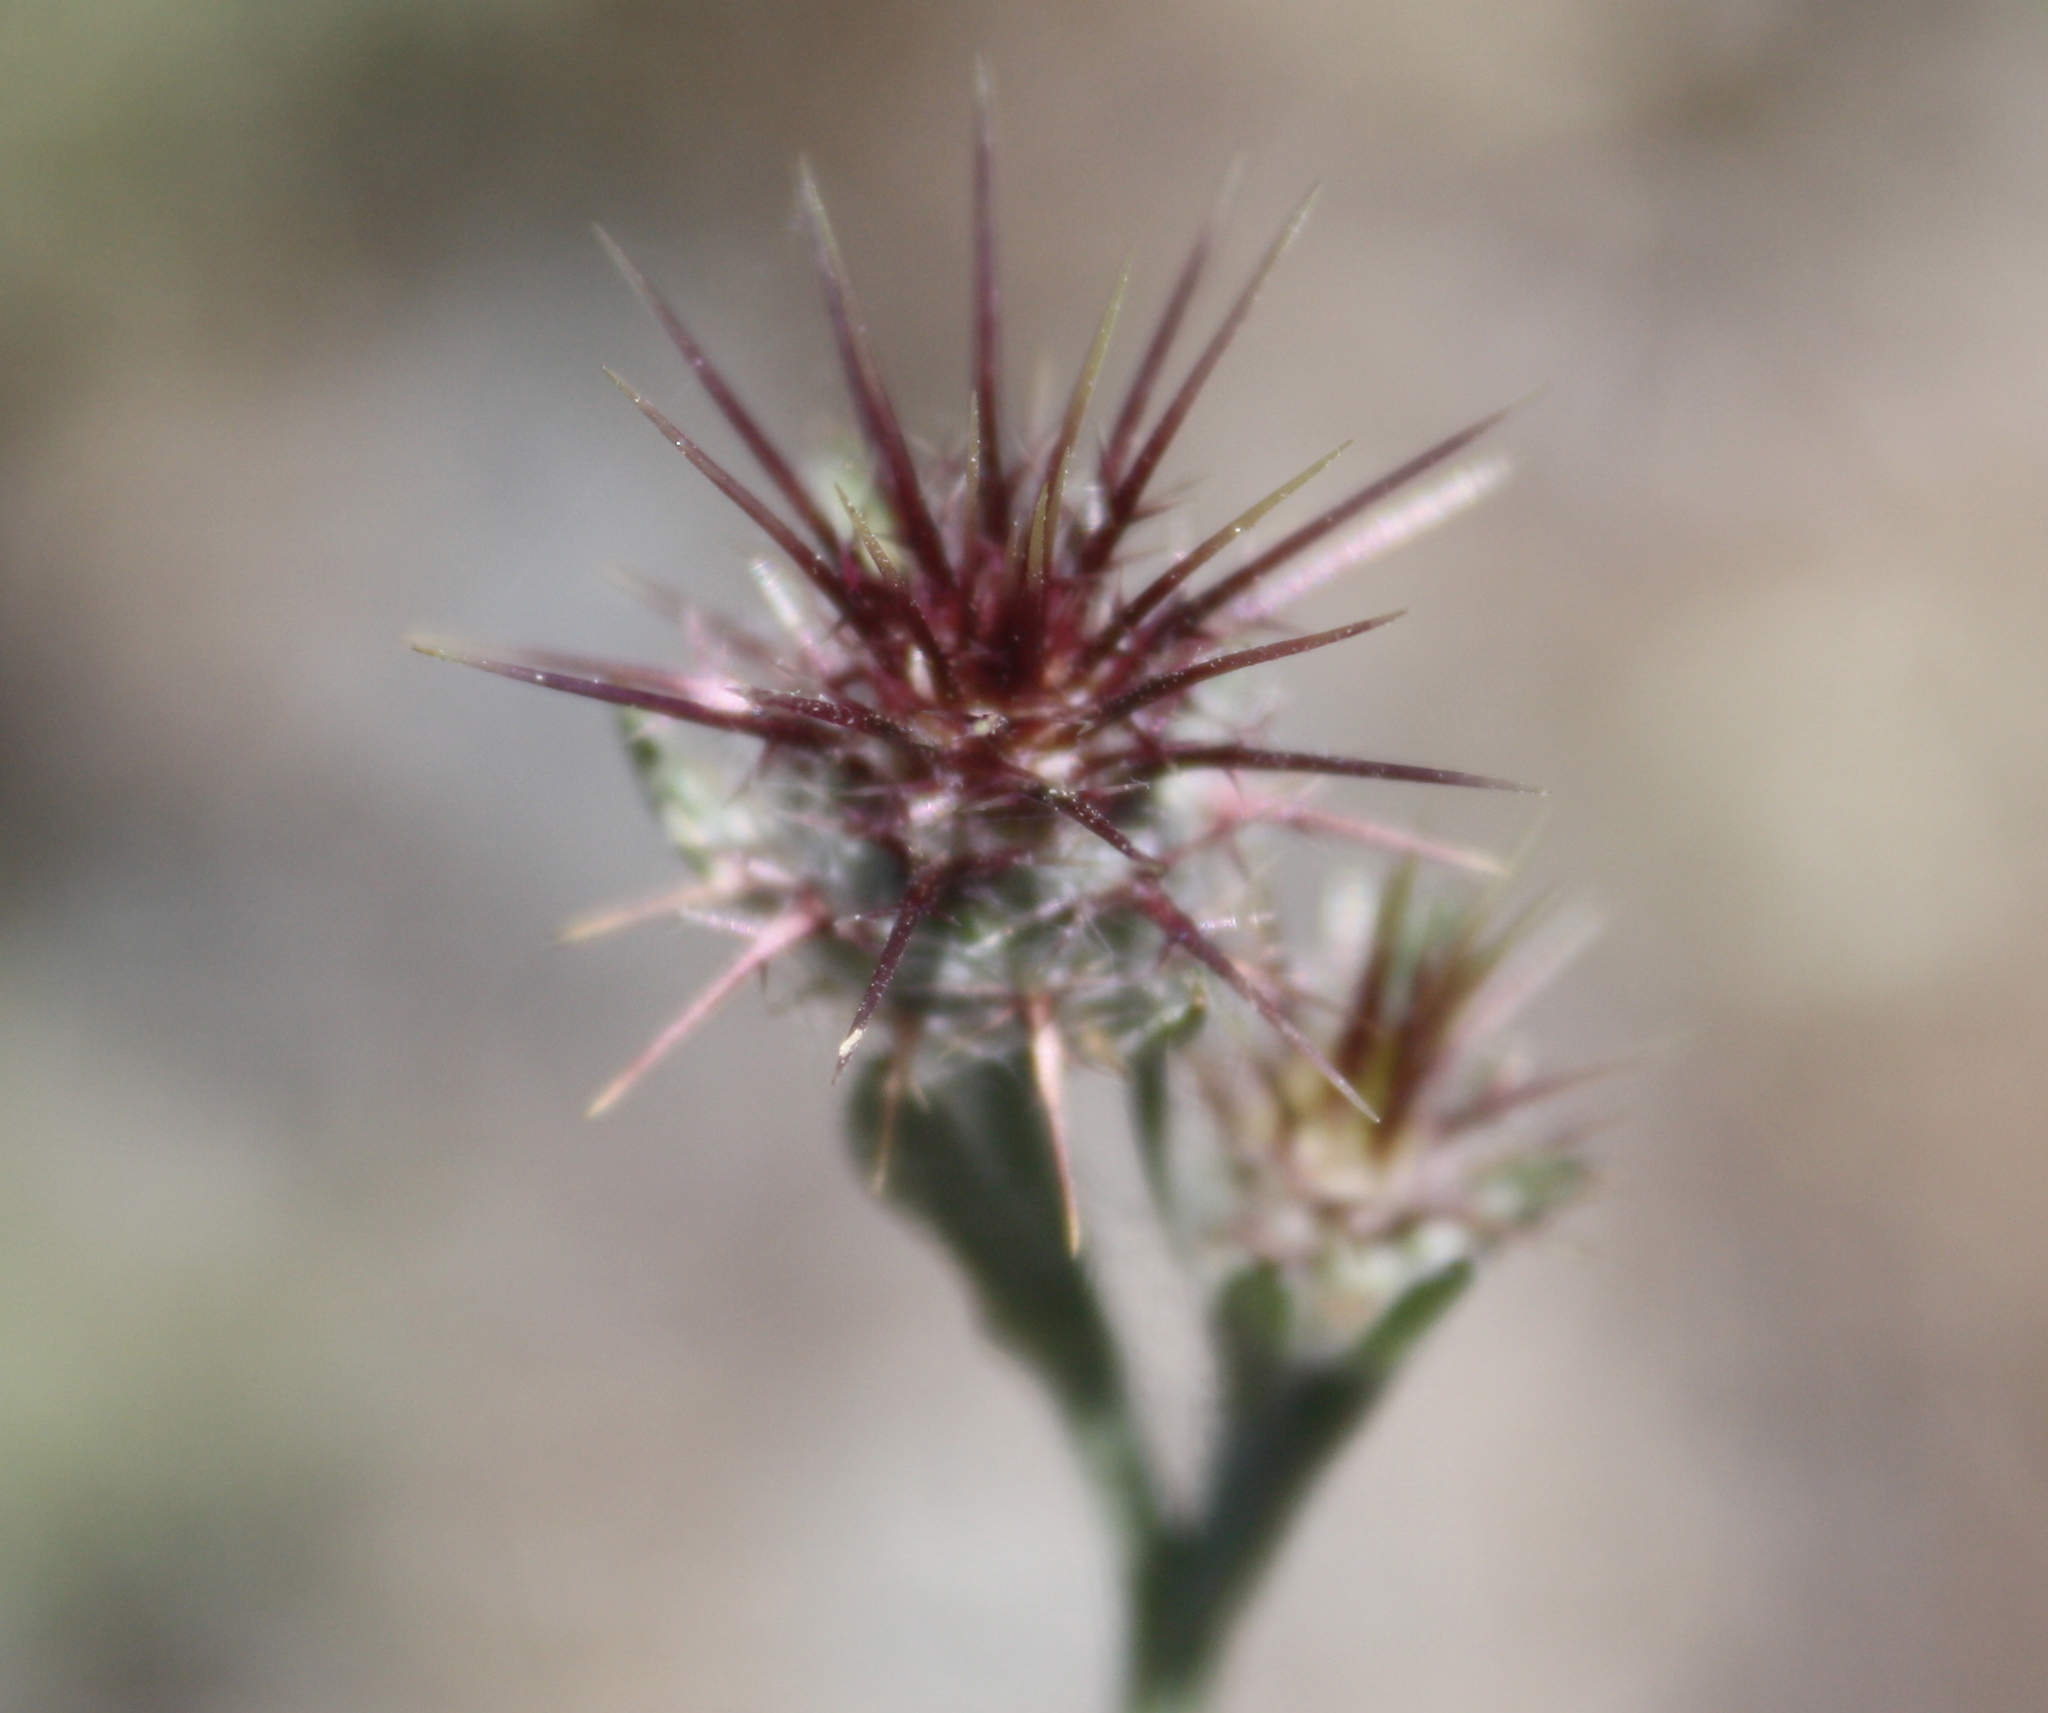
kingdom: Plantae
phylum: Tracheophyta
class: Magnoliopsida
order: Asterales
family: Asteraceae
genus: Centaurea
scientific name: Centaurea melitensis
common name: Maltese star-thistle
